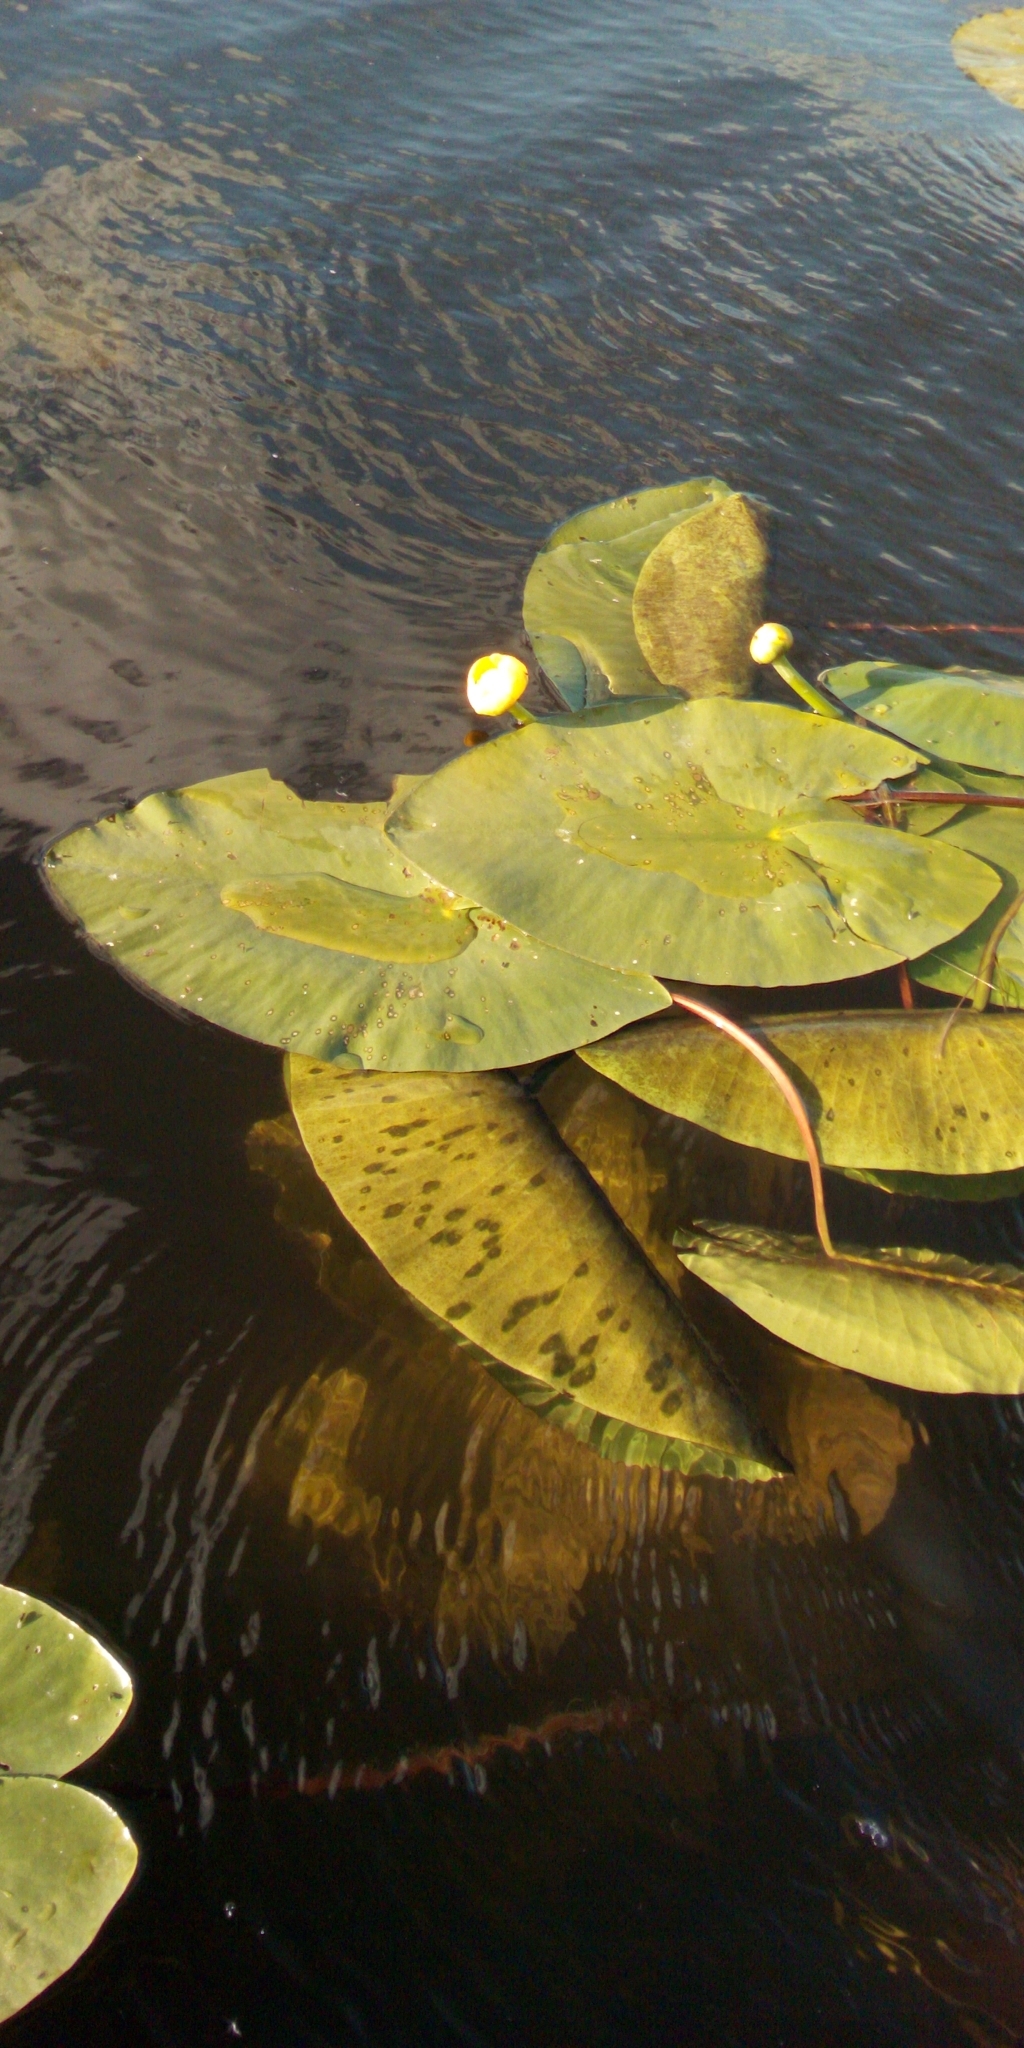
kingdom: Plantae
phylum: Tracheophyta
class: Magnoliopsida
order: Nymphaeales
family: Nymphaeaceae
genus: Nuphar
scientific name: Nuphar lutea
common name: Yellow water-lily
